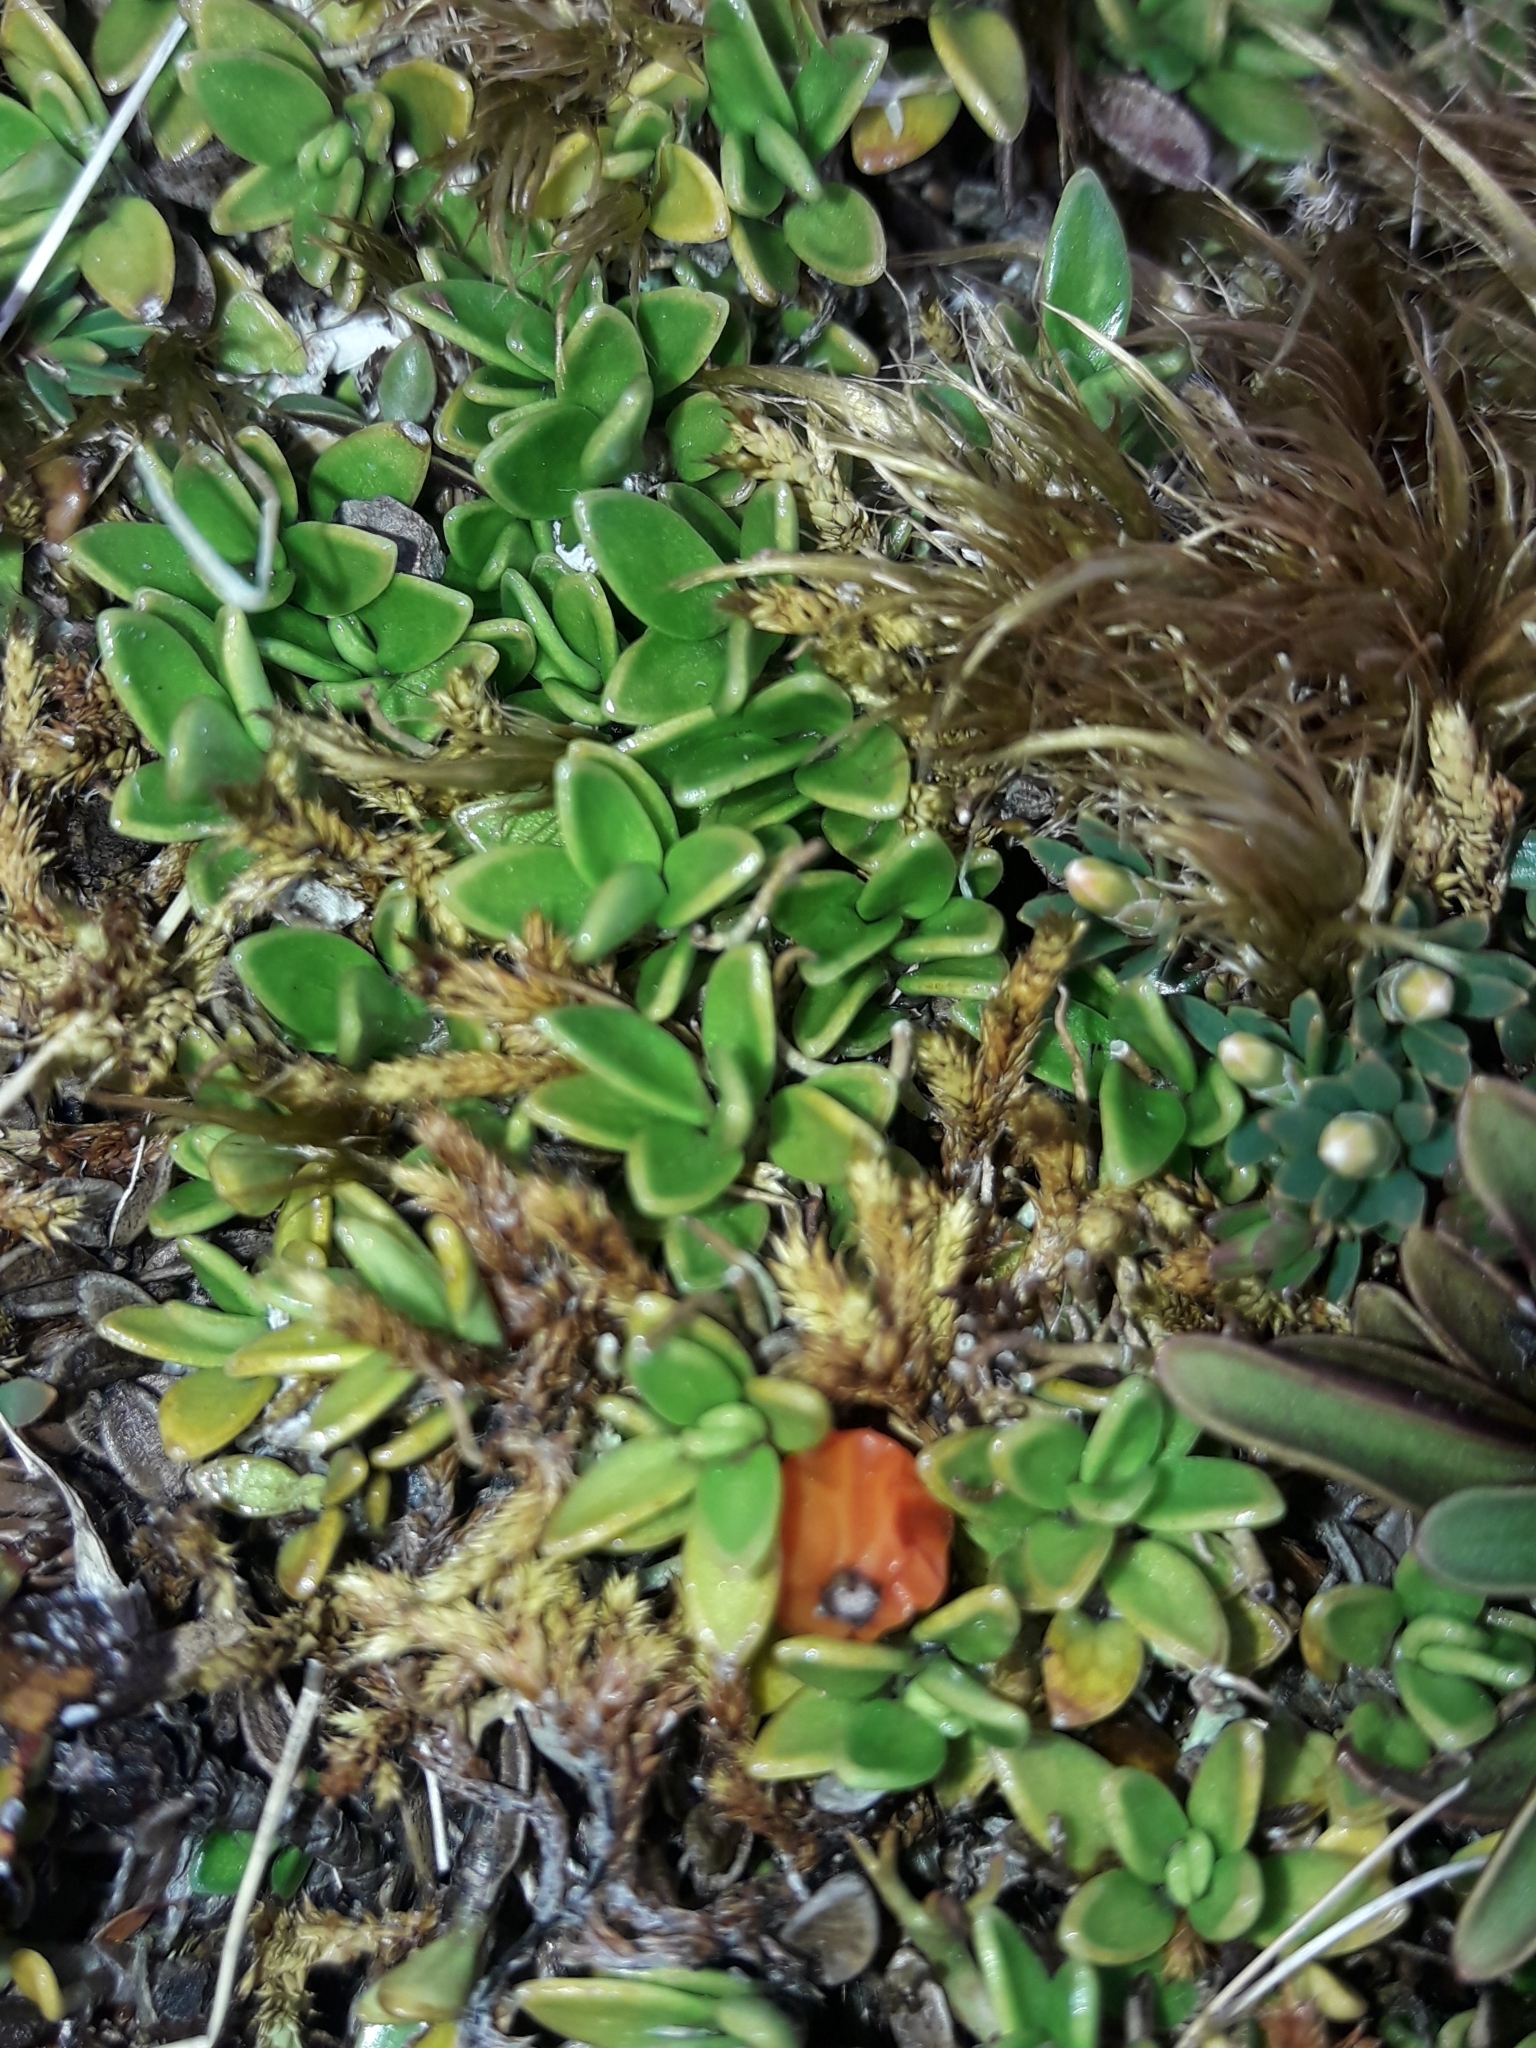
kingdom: Plantae
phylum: Tracheophyta
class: Magnoliopsida
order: Gentianales
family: Rubiaceae
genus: Coprosma
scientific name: Coprosma perpusilla
